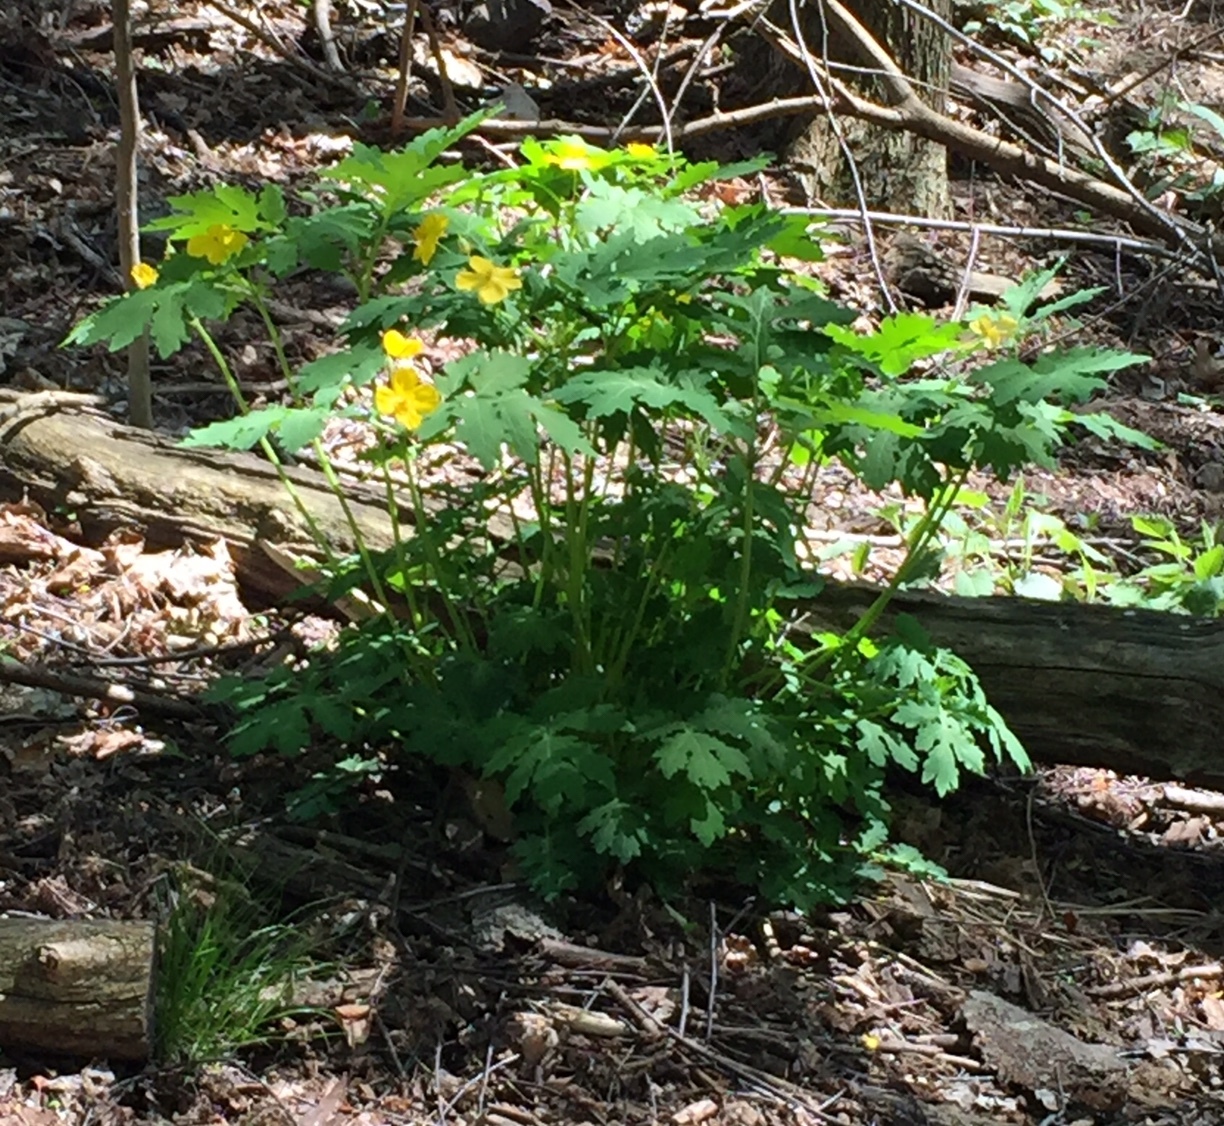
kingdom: Plantae
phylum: Tracheophyta
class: Magnoliopsida
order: Ranunculales
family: Papaveraceae
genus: Stylophorum
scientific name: Stylophorum diphyllum
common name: Celandine poppy
